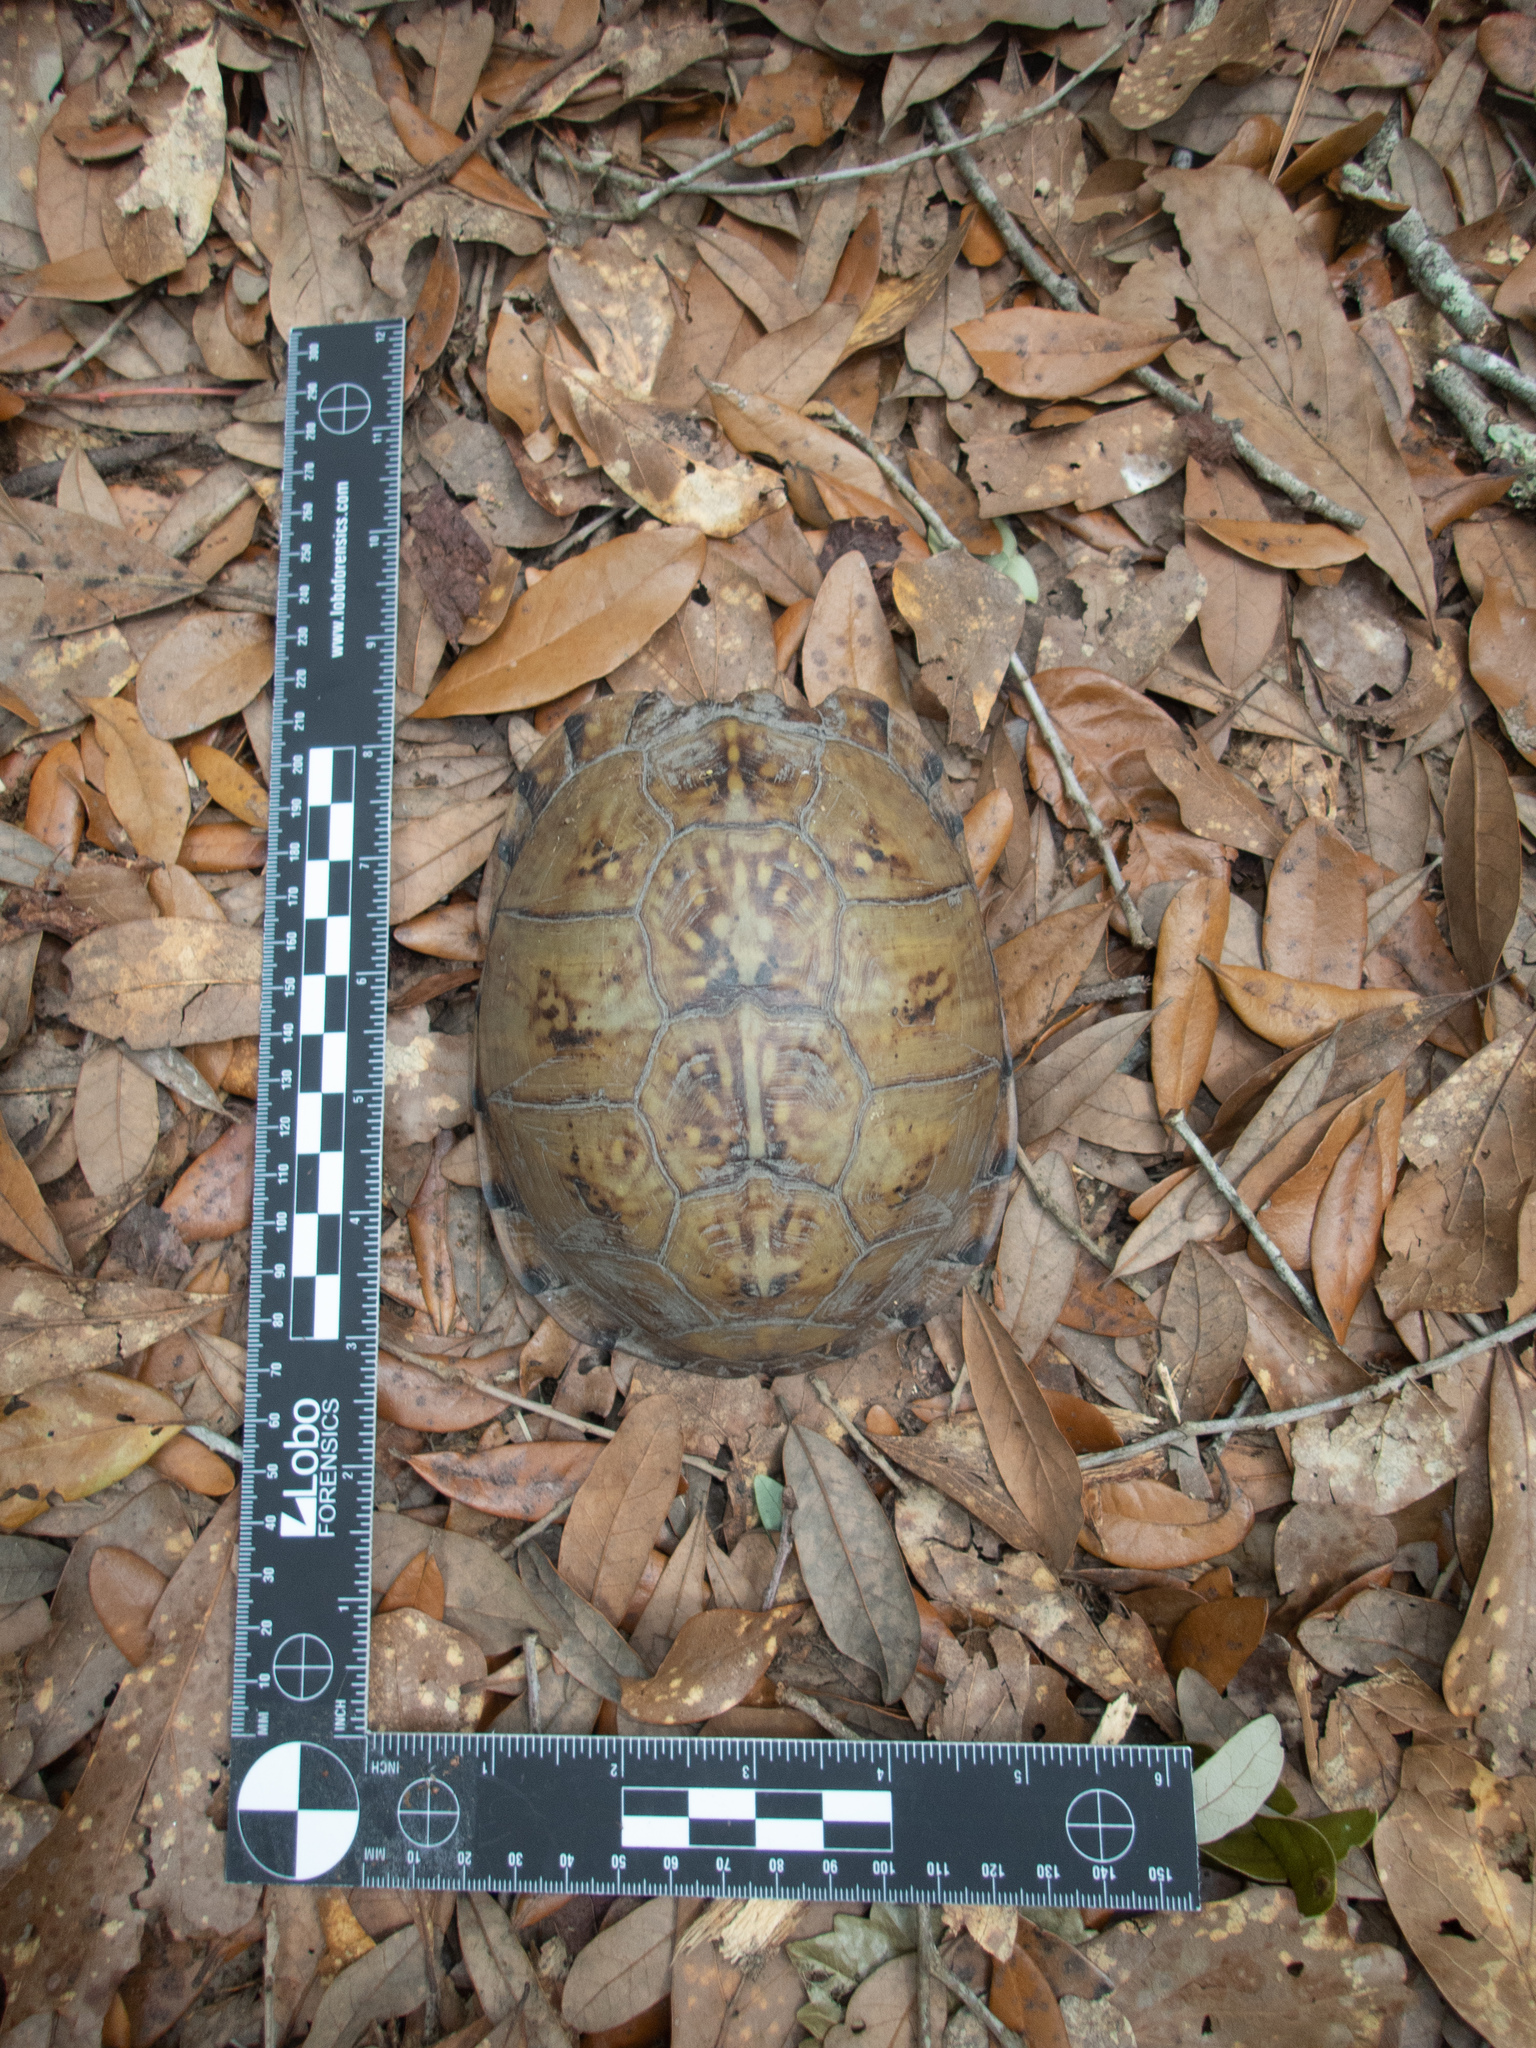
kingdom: Animalia
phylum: Chordata
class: Testudines
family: Emydidae
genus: Terrapene
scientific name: Terrapene carolina
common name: Common box turtle
